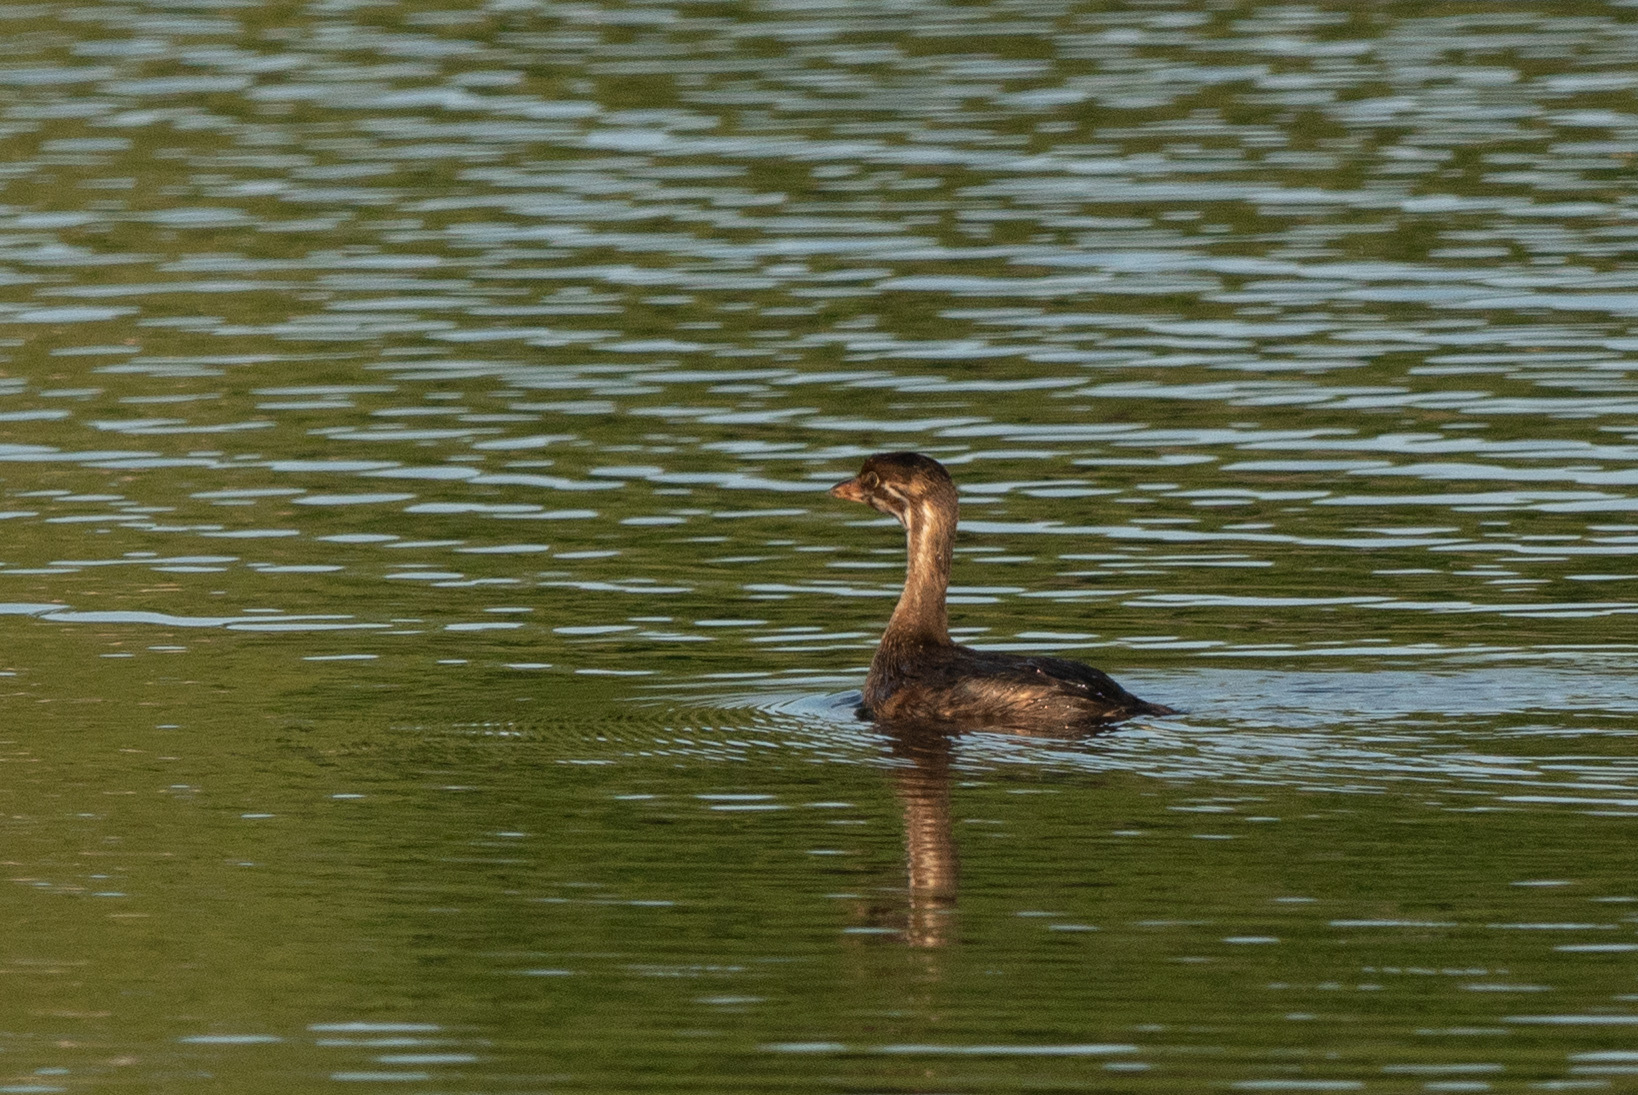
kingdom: Animalia
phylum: Chordata
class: Aves
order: Podicipediformes
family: Podicipedidae
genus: Podilymbus
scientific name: Podilymbus podiceps
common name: Pied-billed grebe
